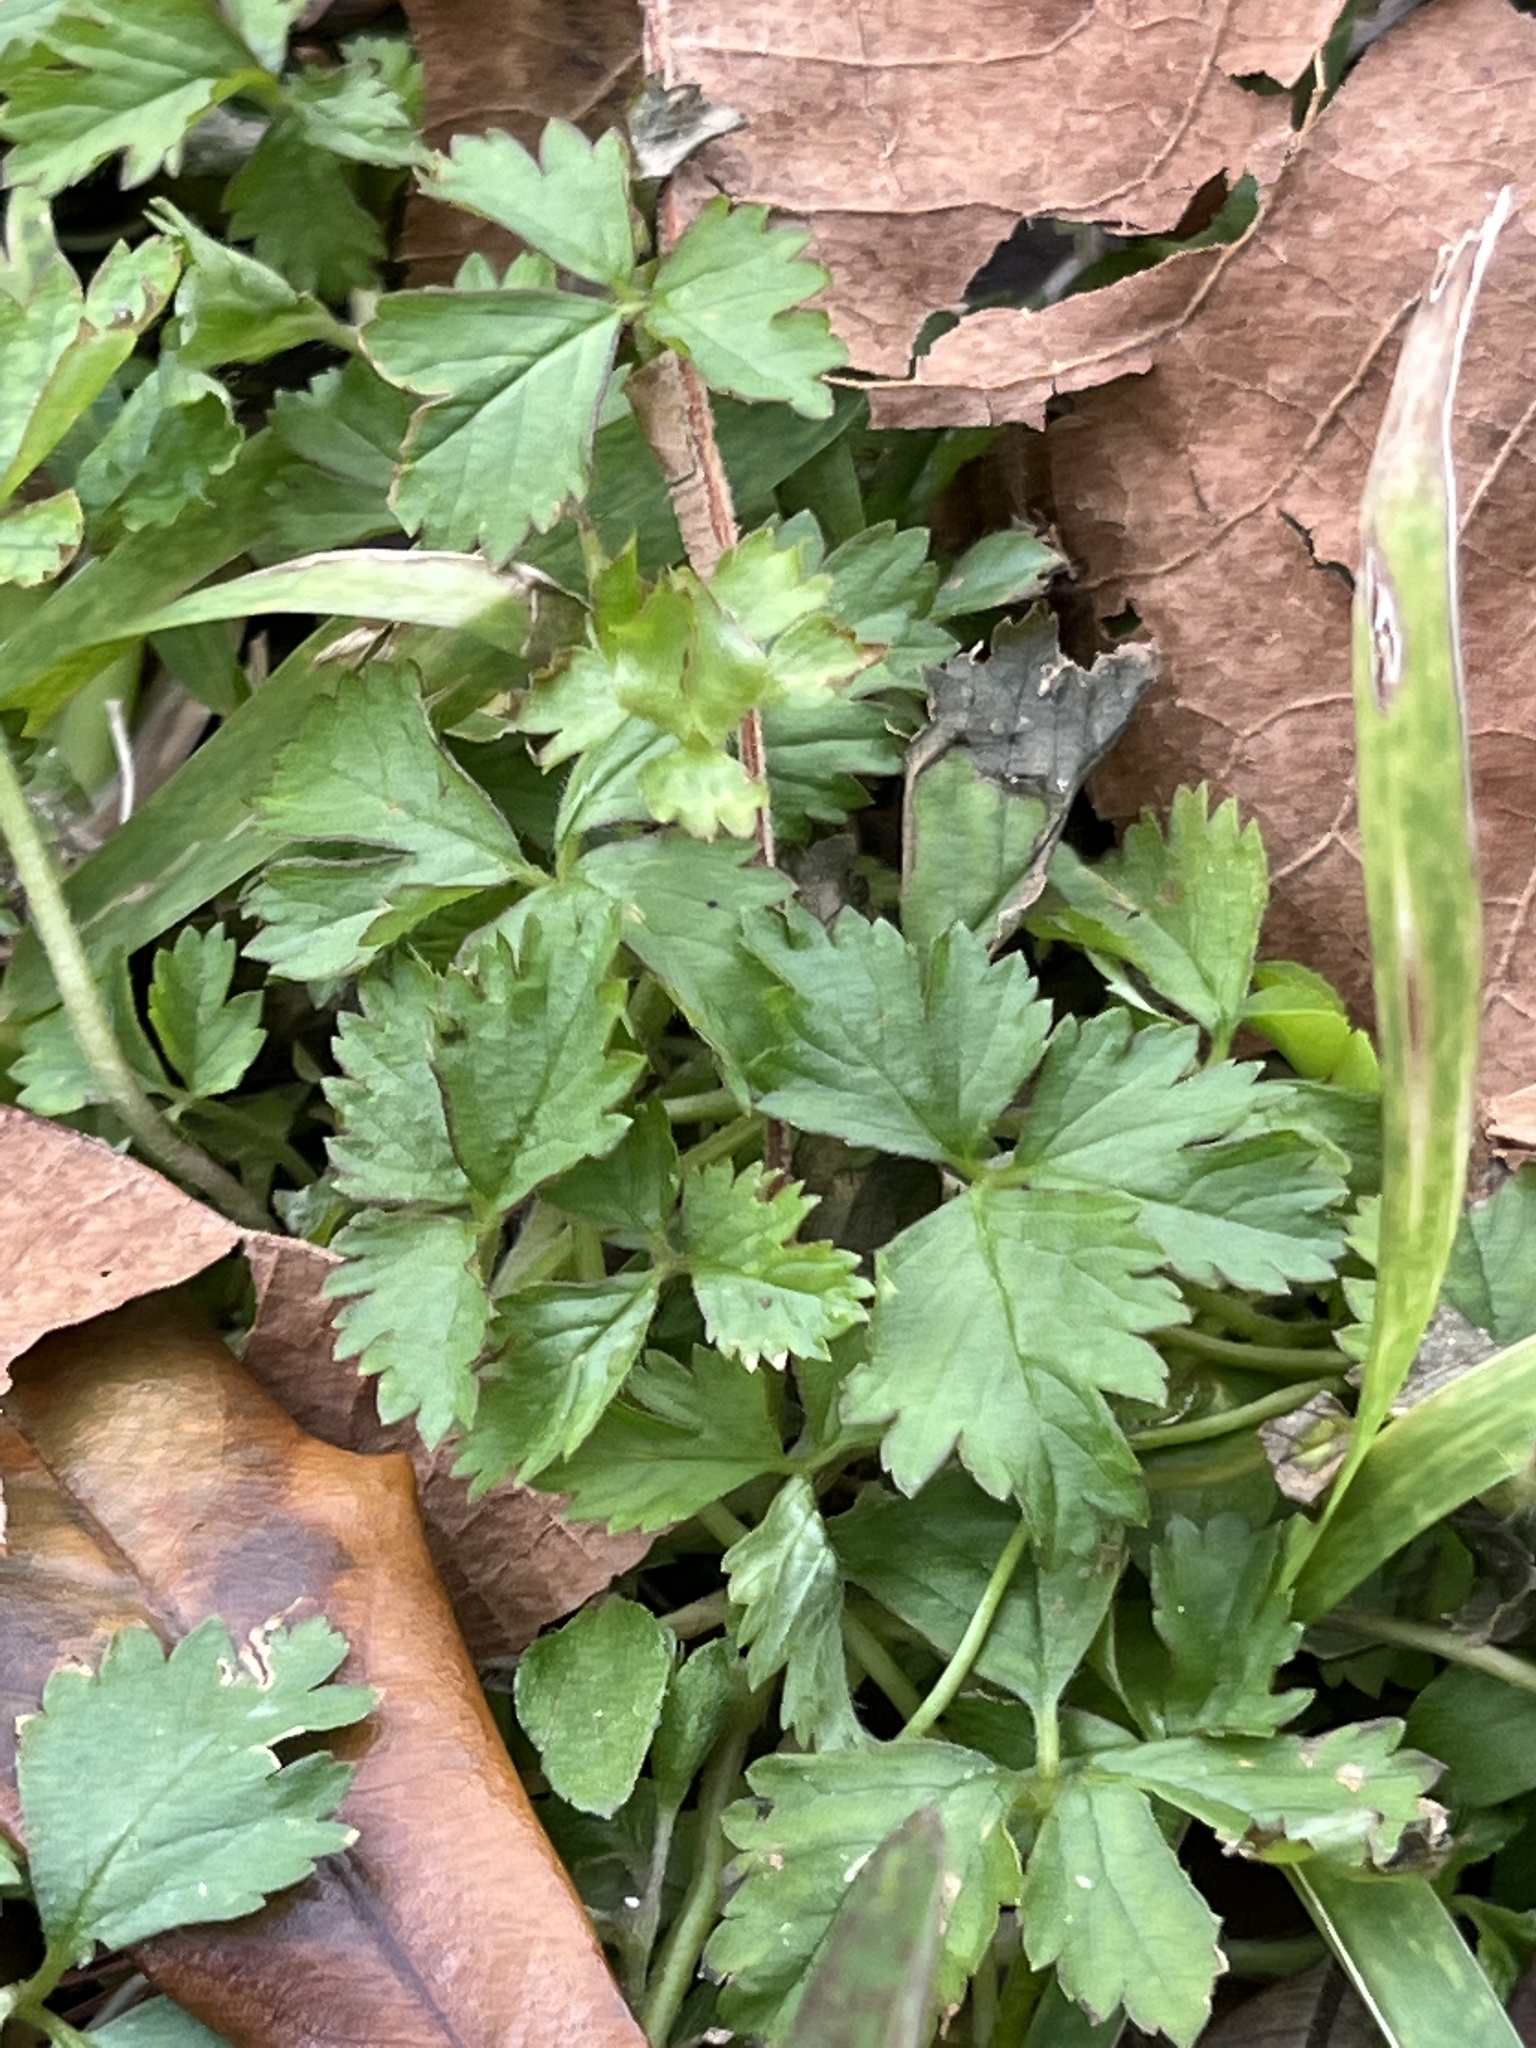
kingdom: Plantae
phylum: Tracheophyta
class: Magnoliopsida
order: Rosales
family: Rosaceae
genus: Potentilla
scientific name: Potentilla indica
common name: Yellow-flowered strawberry
